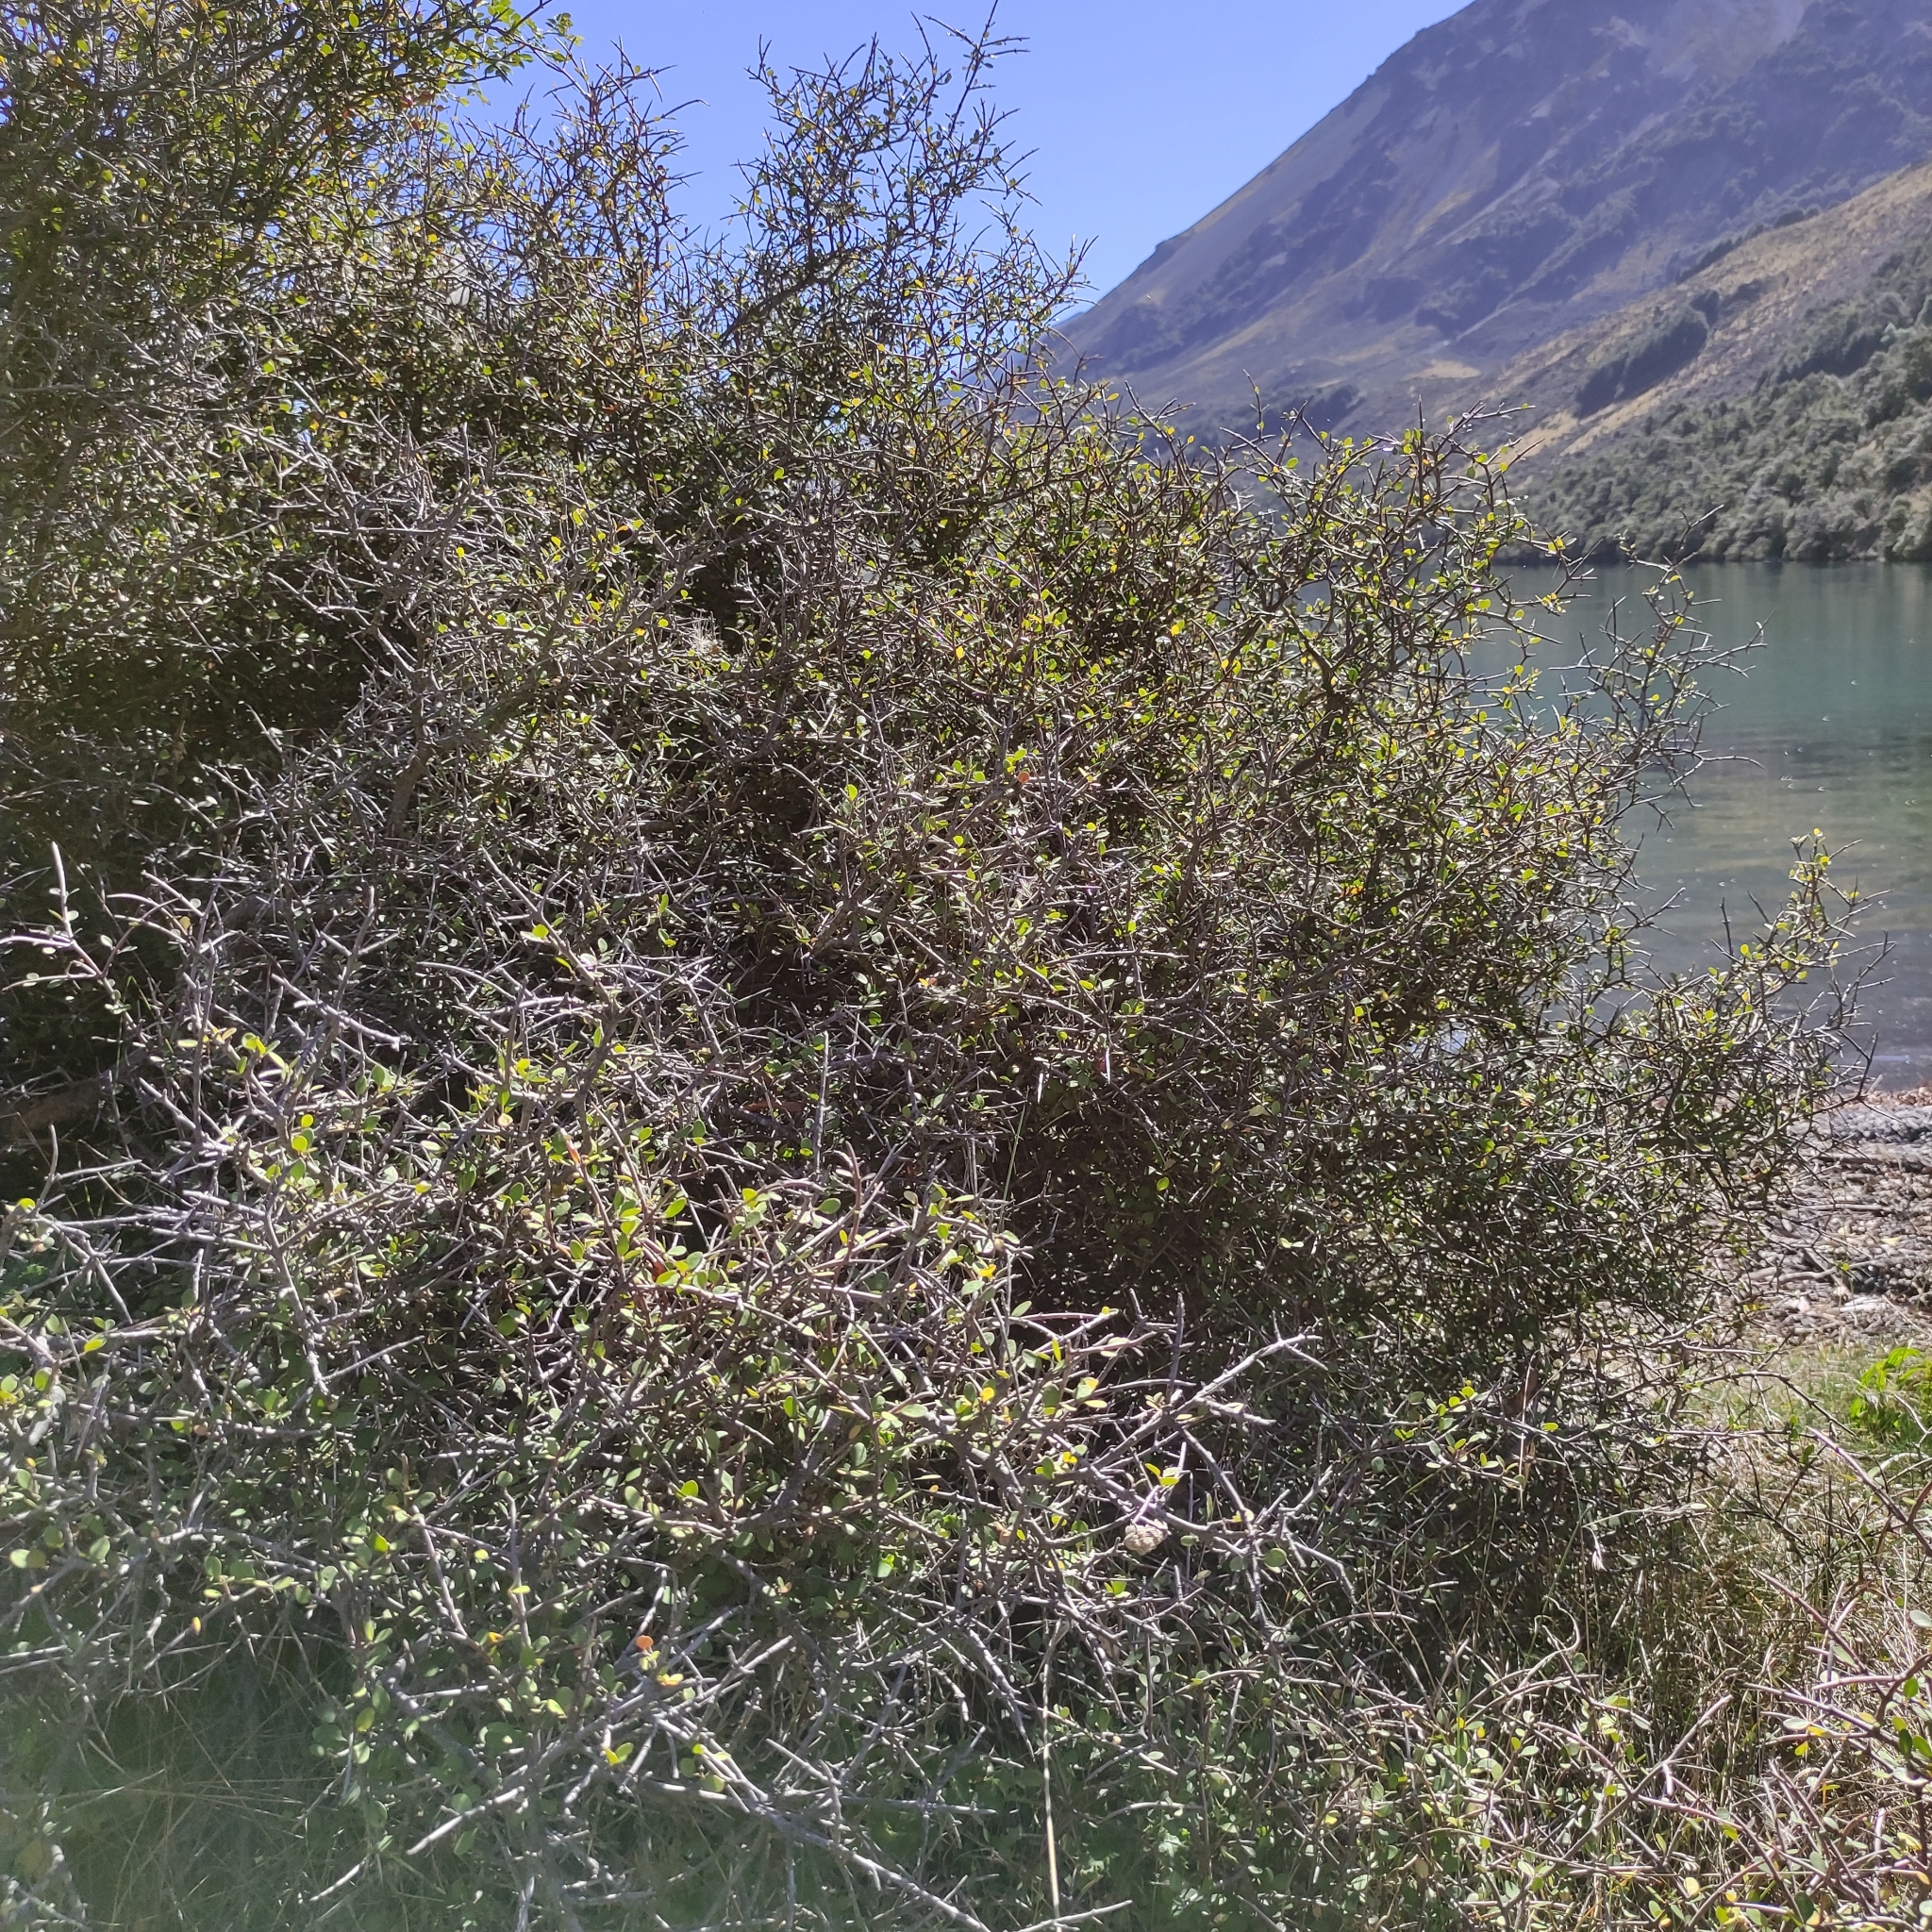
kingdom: Plantae
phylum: Tracheophyta
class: Magnoliopsida
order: Oxalidales
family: Elaeocarpaceae
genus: Aristotelia
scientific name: Aristotelia fruticosa
